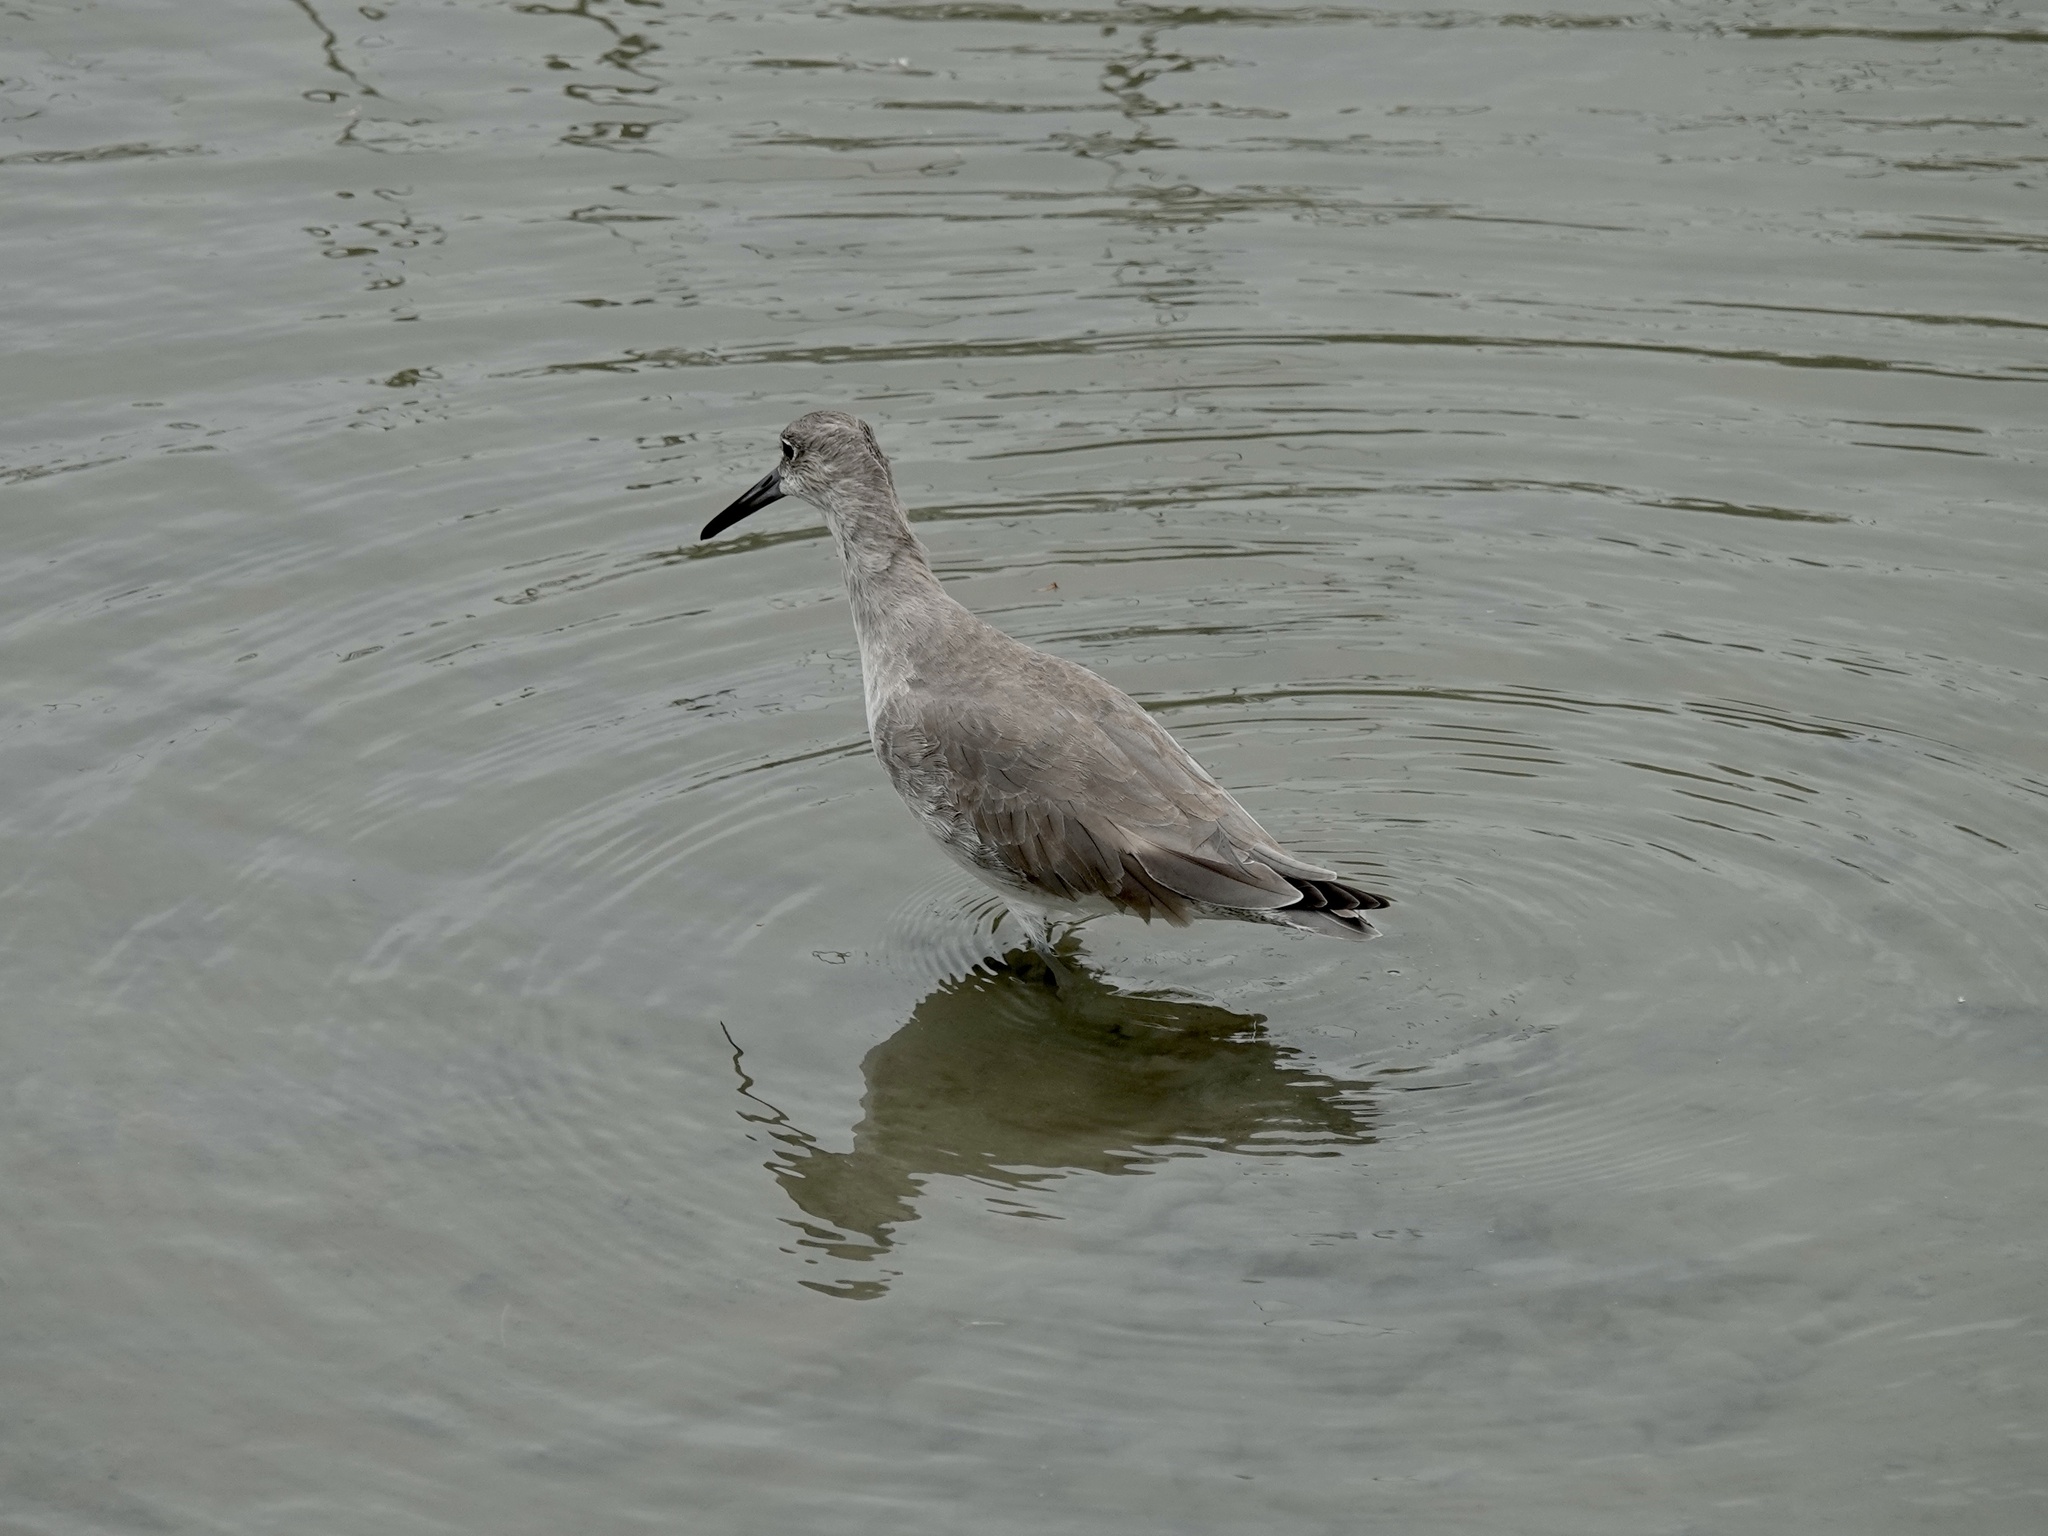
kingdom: Animalia
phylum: Chordata
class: Aves
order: Charadriiformes
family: Scolopacidae
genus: Tringa
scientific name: Tringa semipalmata
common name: Willet
